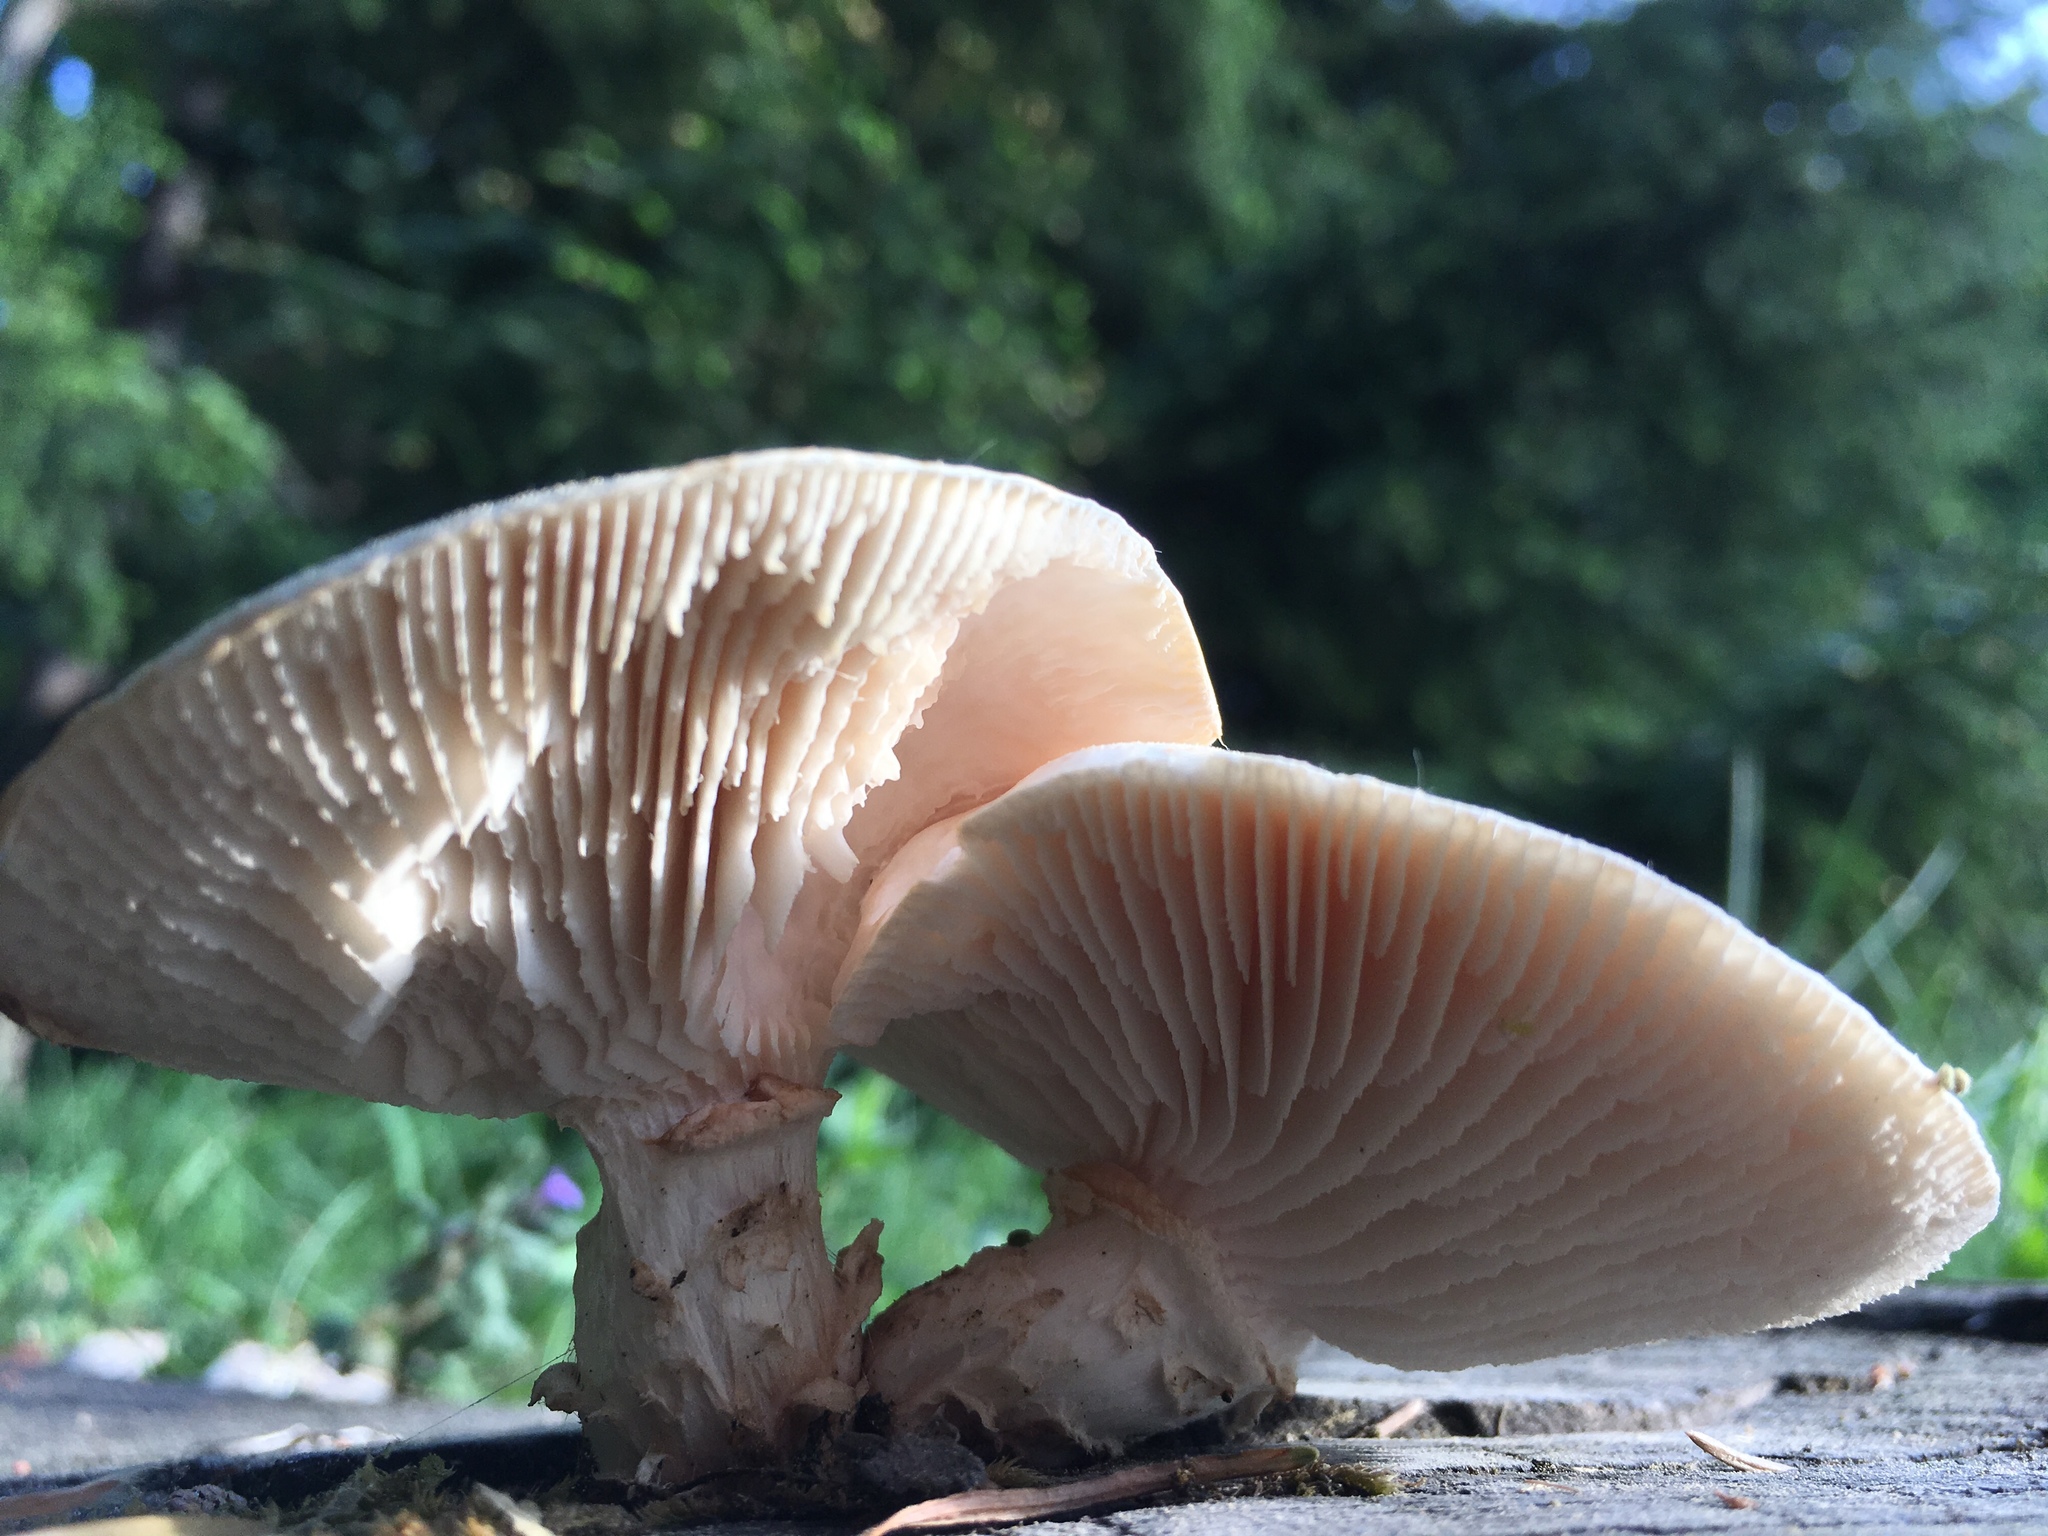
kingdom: Fungi
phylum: Basidiomycota
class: Agaricomycetes
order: Gloeophyllales
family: Gloeophyllaceae
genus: Neolentinus
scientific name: Neolentinus lepideus
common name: Scaly sawgill
